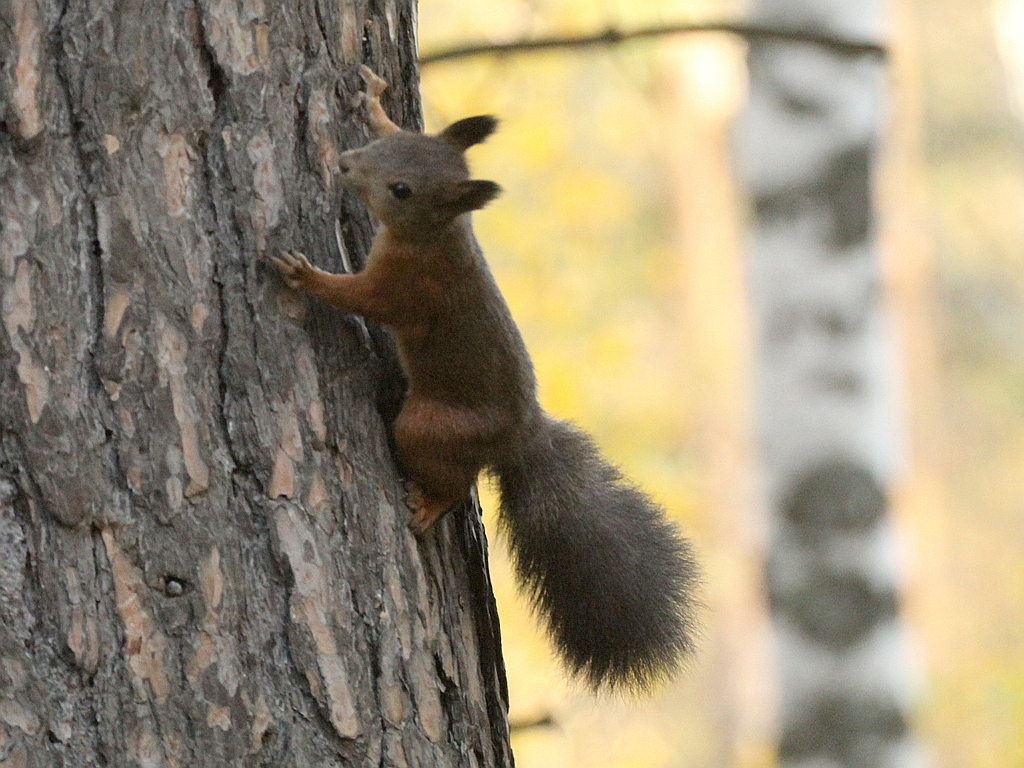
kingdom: Animalia
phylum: Chordata
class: Mammalia
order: Rodentia
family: Sciuridae
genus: Sciurus
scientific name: Sciurus vulgaris
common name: Eurasian red squirrel
